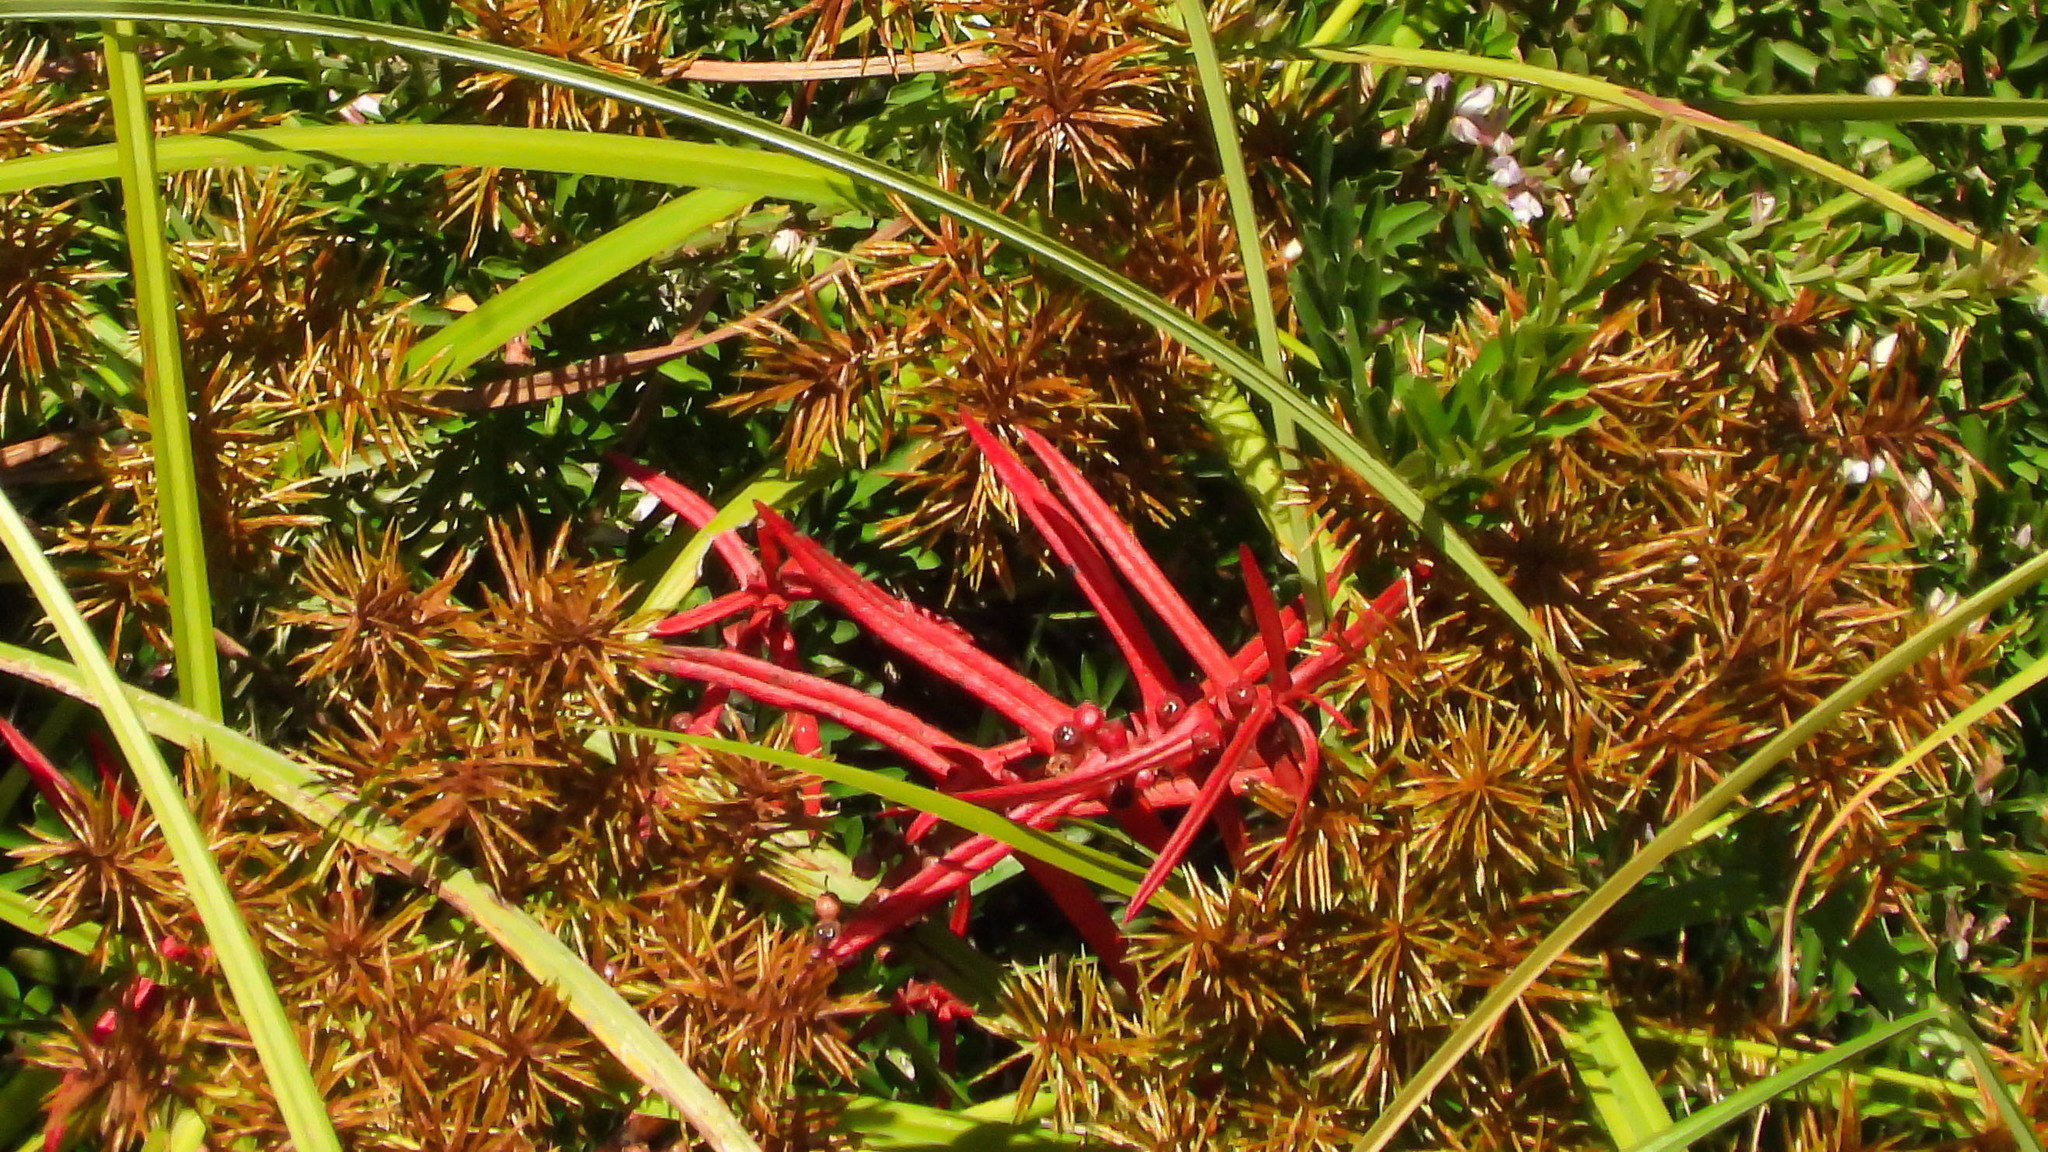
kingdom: Plantae
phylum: Tracheophyta
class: Magnoliopsida
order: Myrtales
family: Lythraceae
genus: Ammannia
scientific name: Ammannia coccinea
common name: Valley redstem
